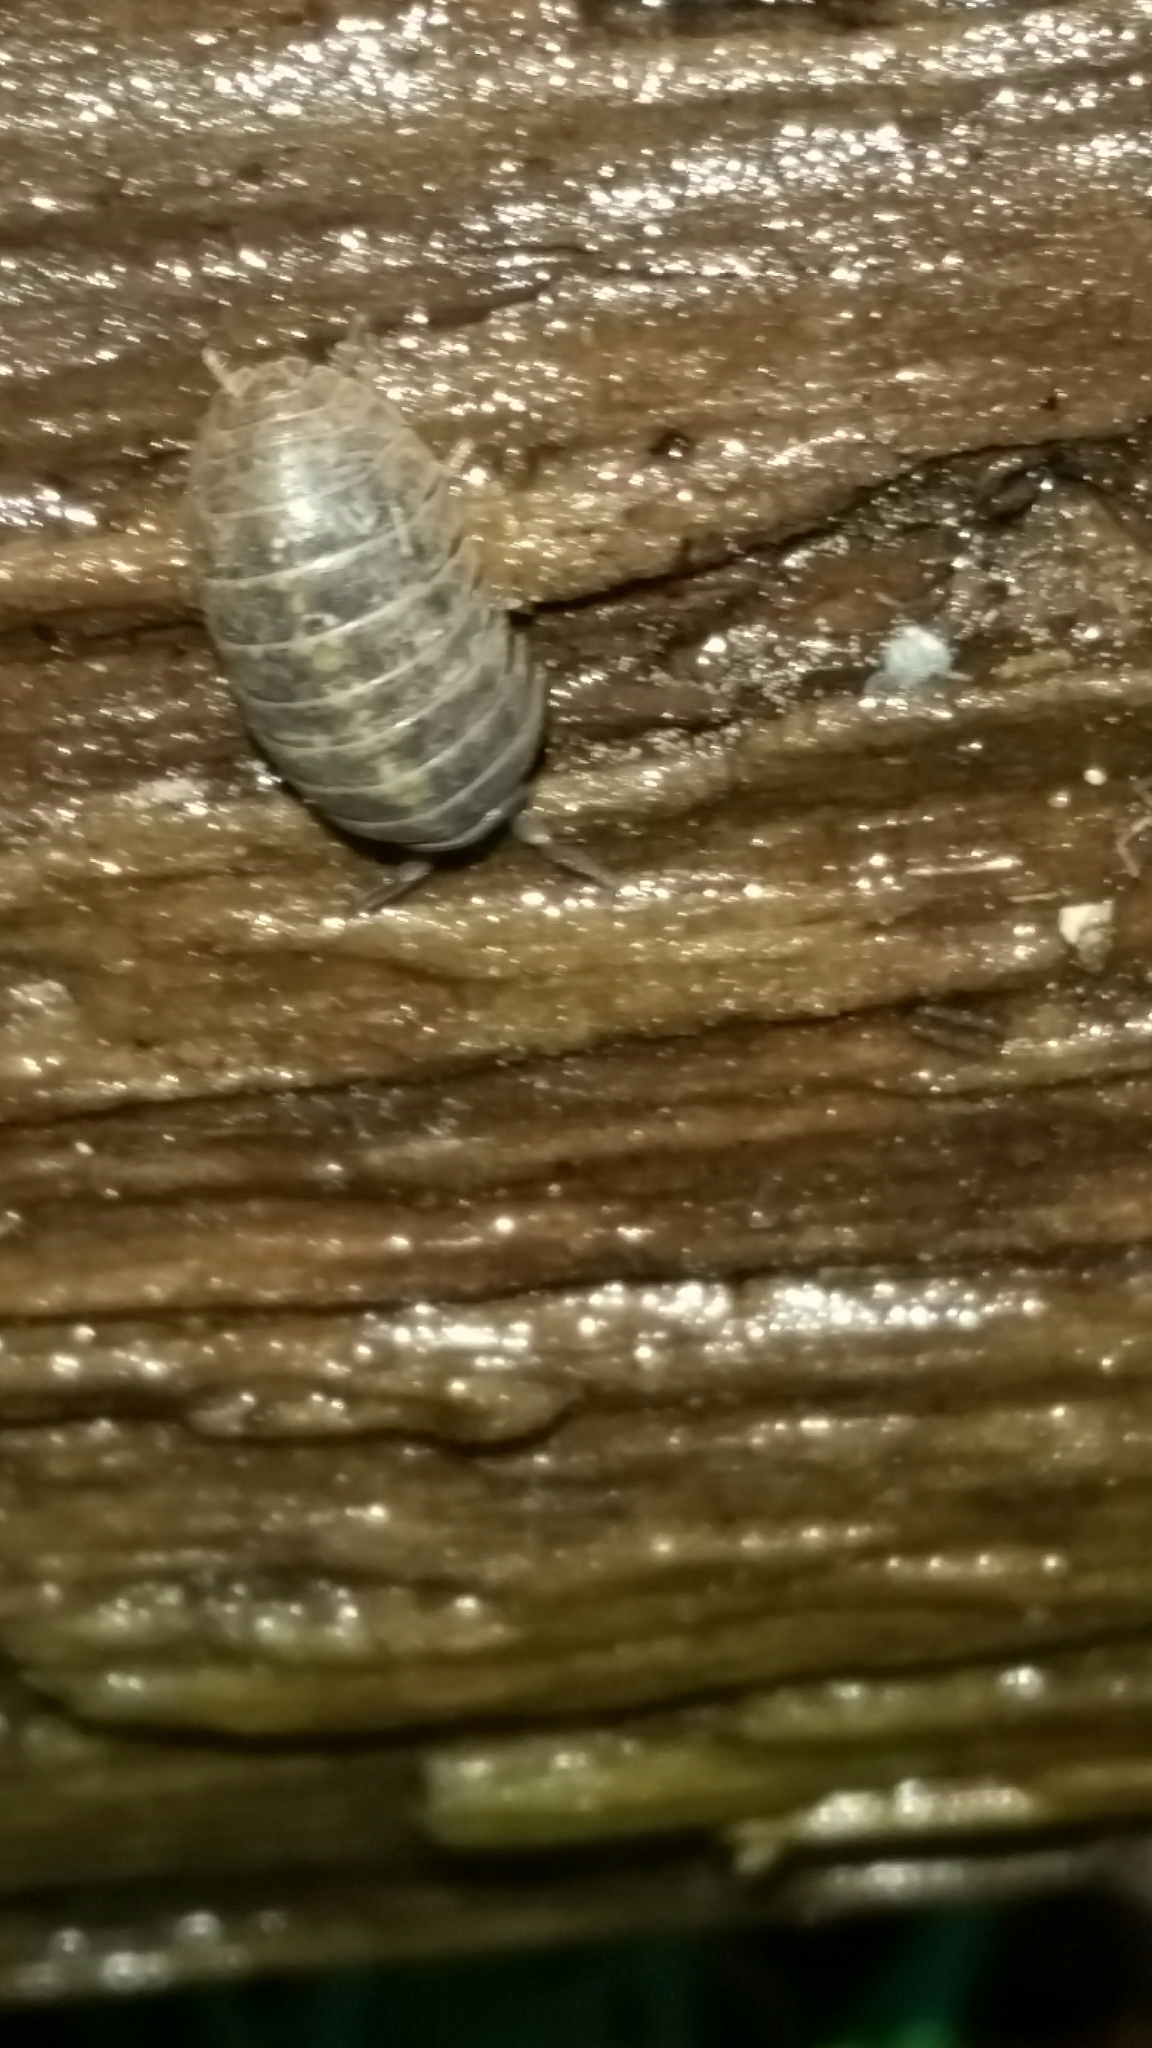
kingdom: Animalia
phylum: Arthropoda
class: Malacostraca
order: Isopoda
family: Armadillidiidae
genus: Armadillidium
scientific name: Armadillidium vulgare
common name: Common pill woodlouse
